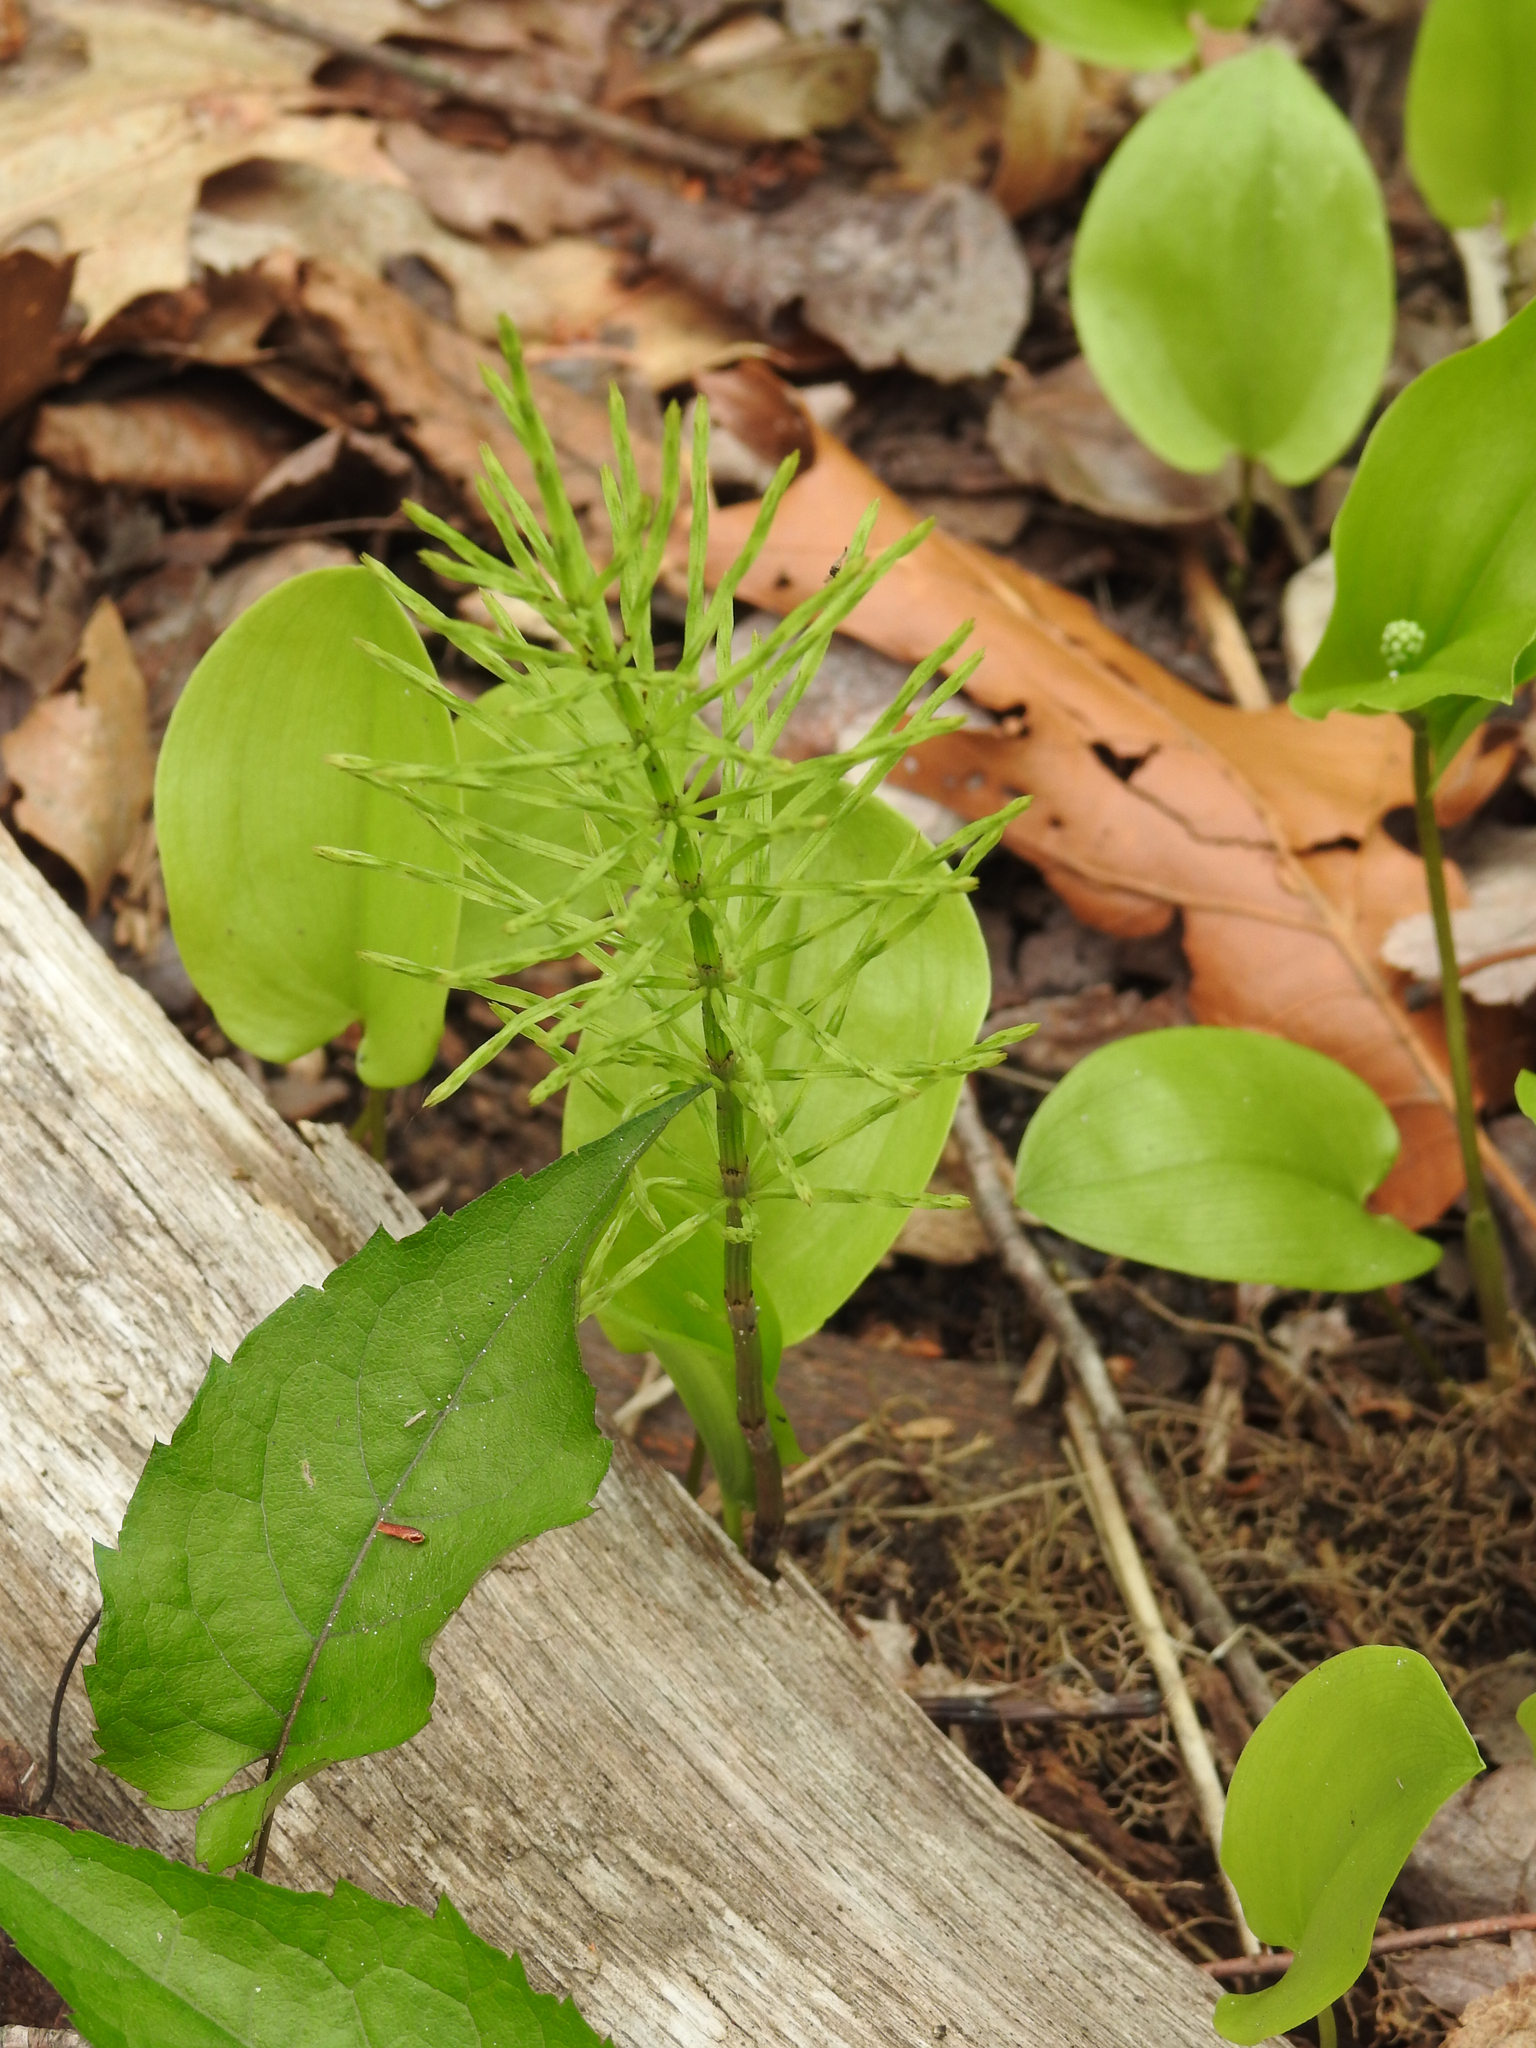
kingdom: Plantae
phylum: Tracheophyta
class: Polypodiopsida
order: Equisetales
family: Equisetaceae
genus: Equisetum
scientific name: Equisetum arvense
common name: Field horsetail
